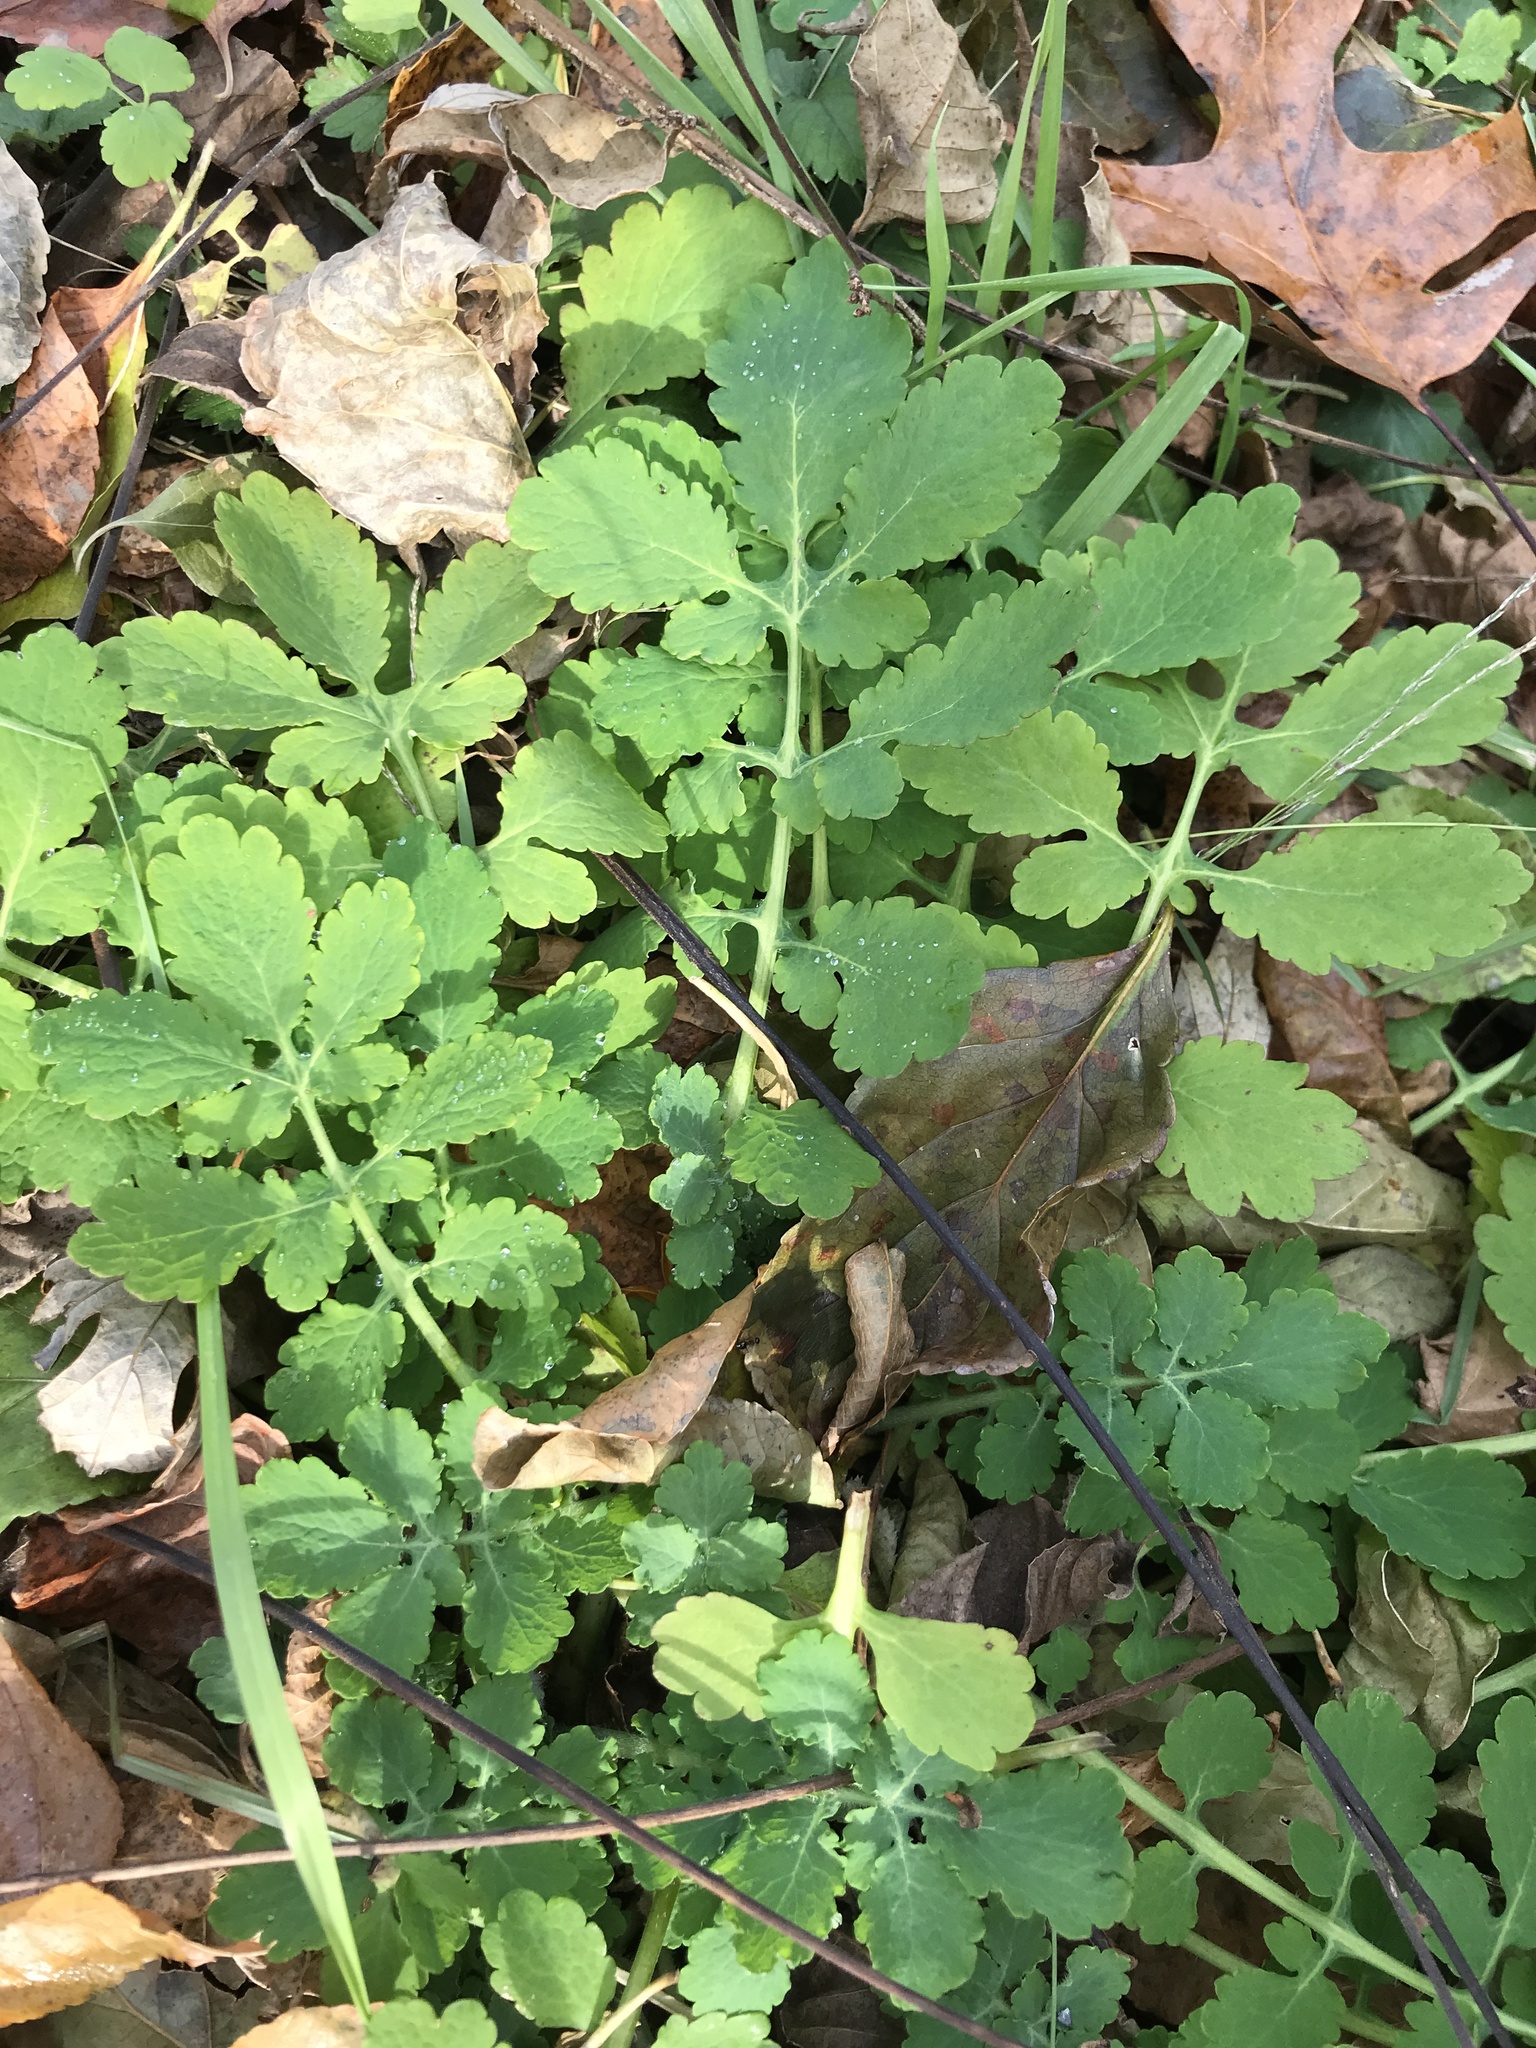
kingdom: Plantae
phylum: Tracheophyta
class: Magnoliopsida
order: Ranunculales
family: Papaveraceae
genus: Chelidonium
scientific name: Chelidonium majus
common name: Greater celandine
